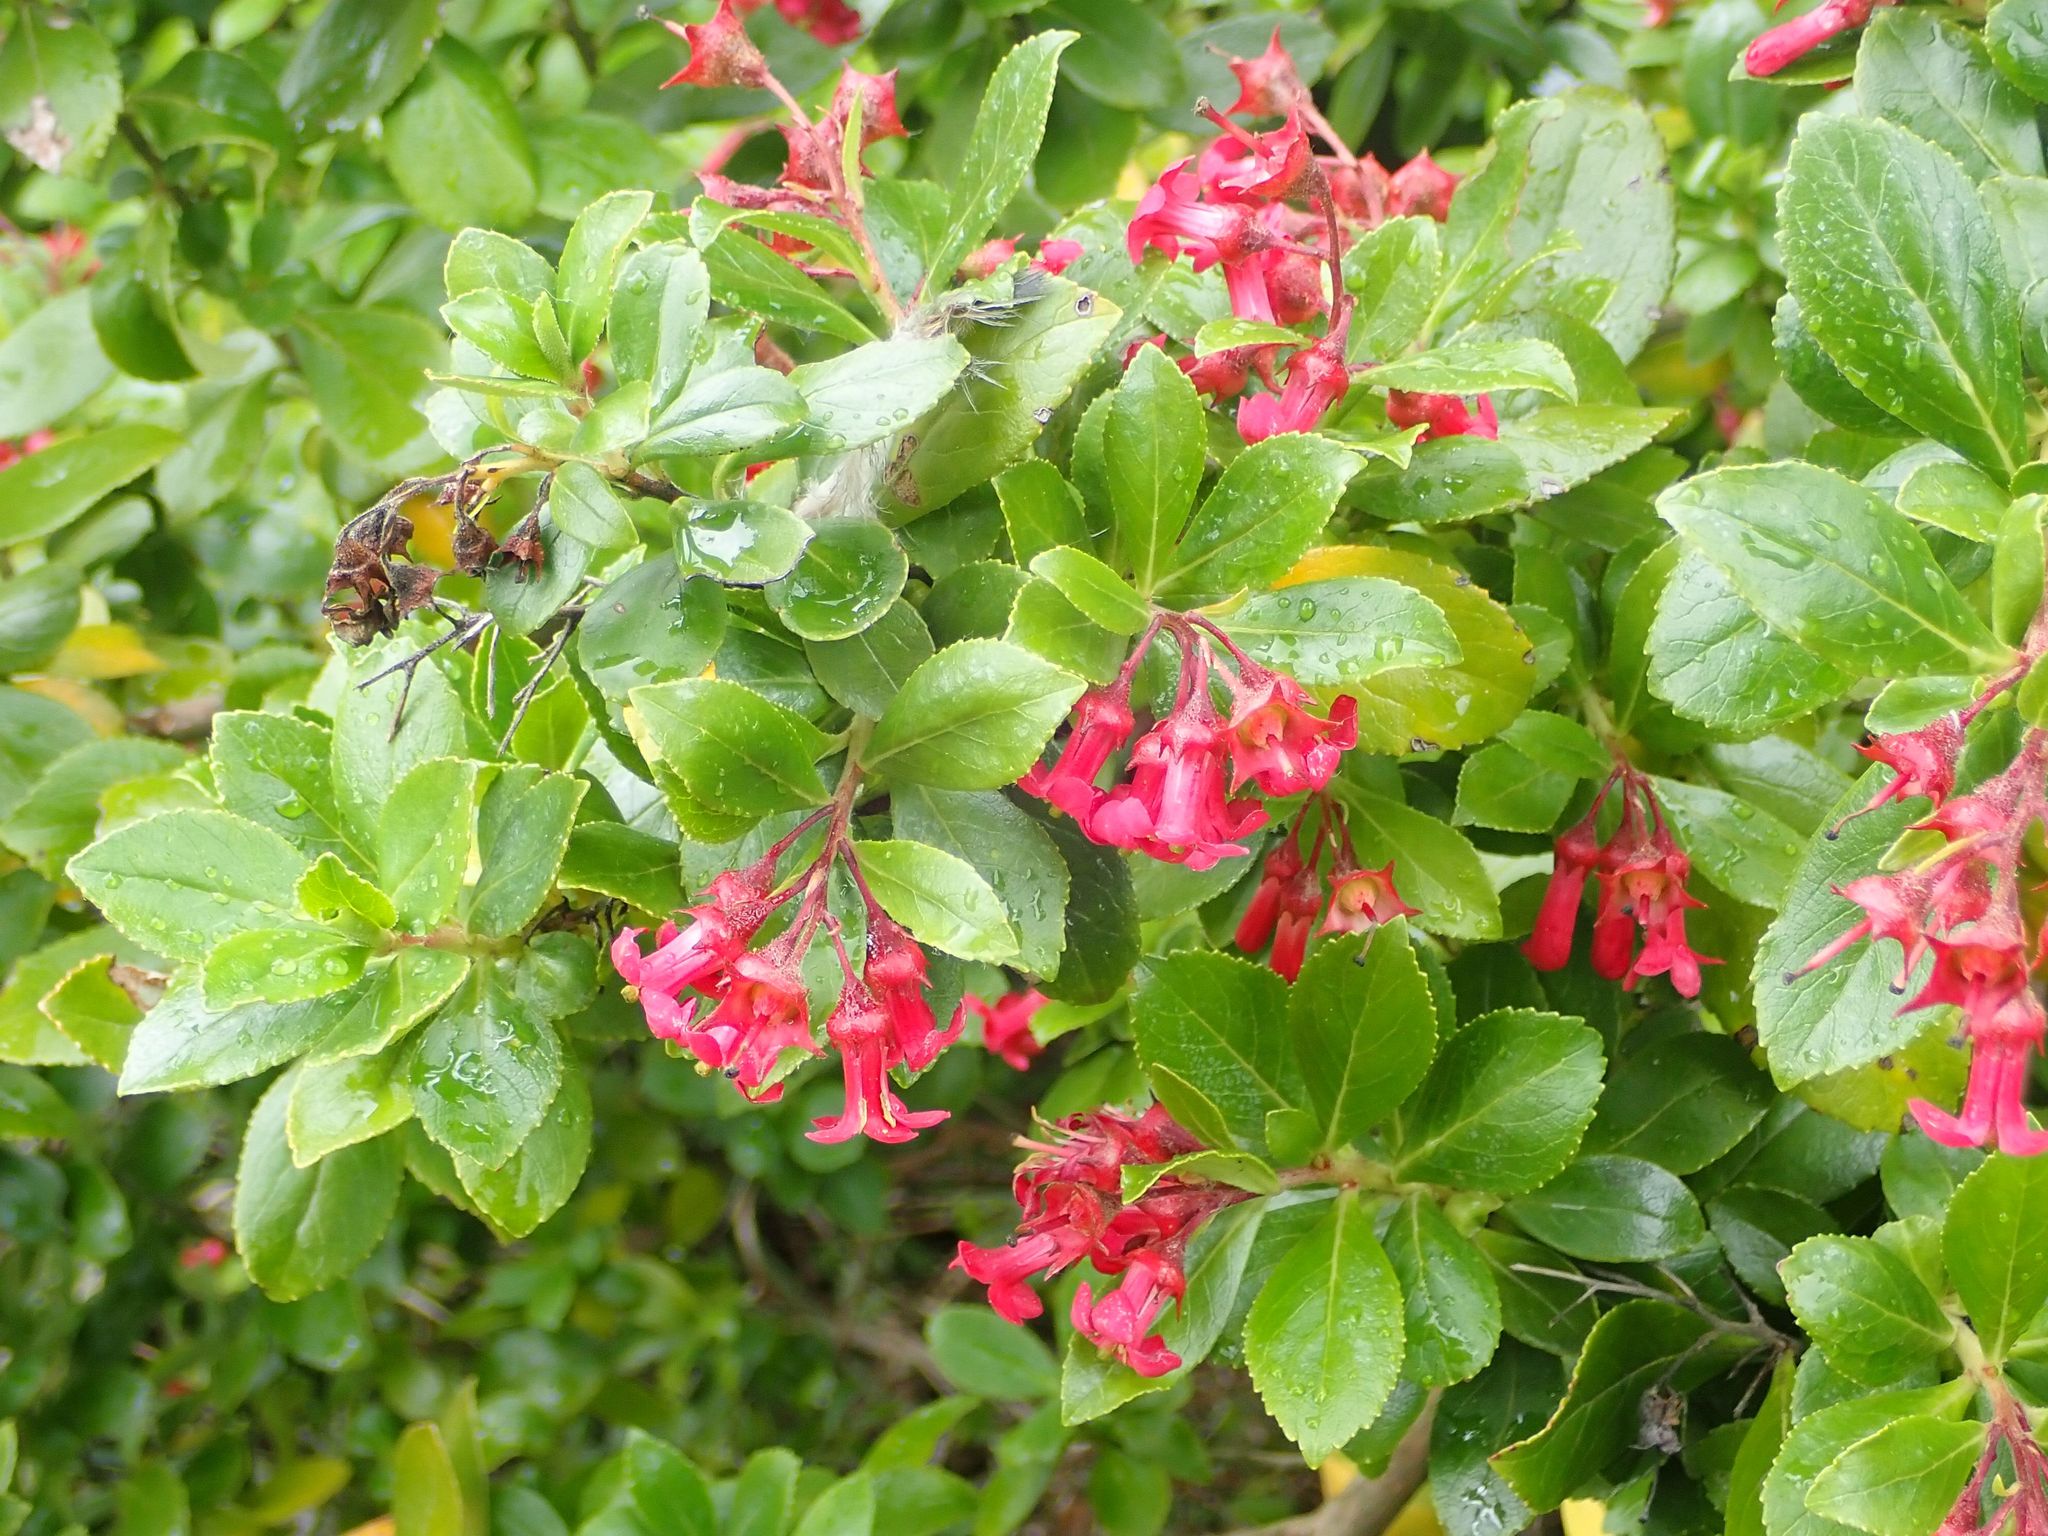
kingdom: Plantae
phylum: Tracheophyta
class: Magnoliopsida
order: Escalloniales
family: Escalloniaceae
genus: Escallonia
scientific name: Escallonia rubra
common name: Redclaws
